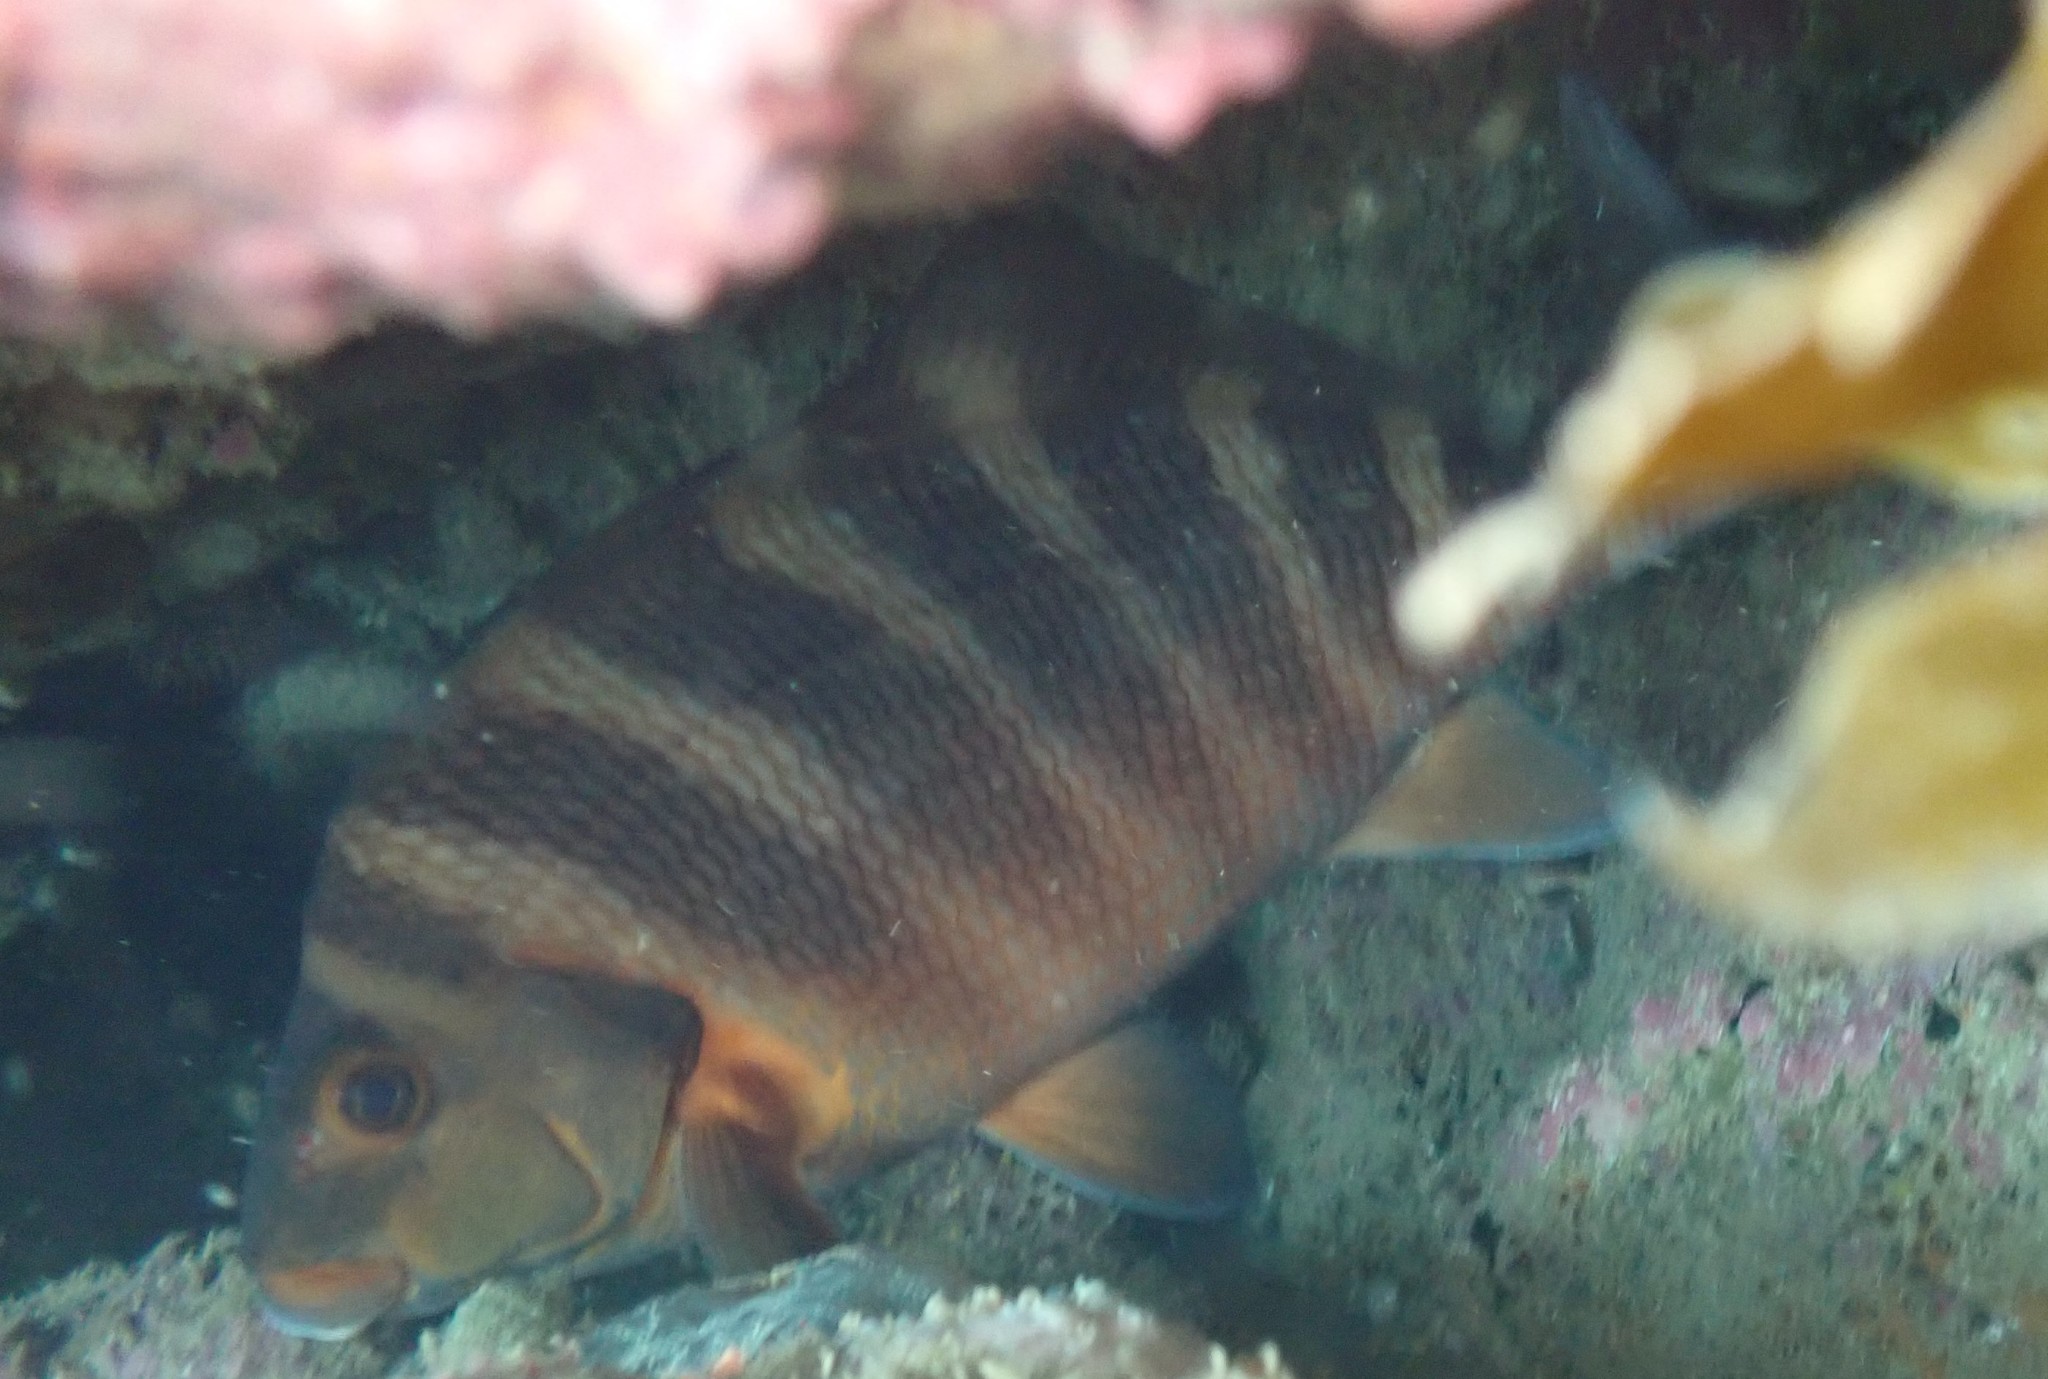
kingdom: Animalia
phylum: Chordata
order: Perciformes
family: Cheilodactylidae
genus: Cheilodactylus
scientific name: Cheilodactylus spectabilis
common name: Red moki
